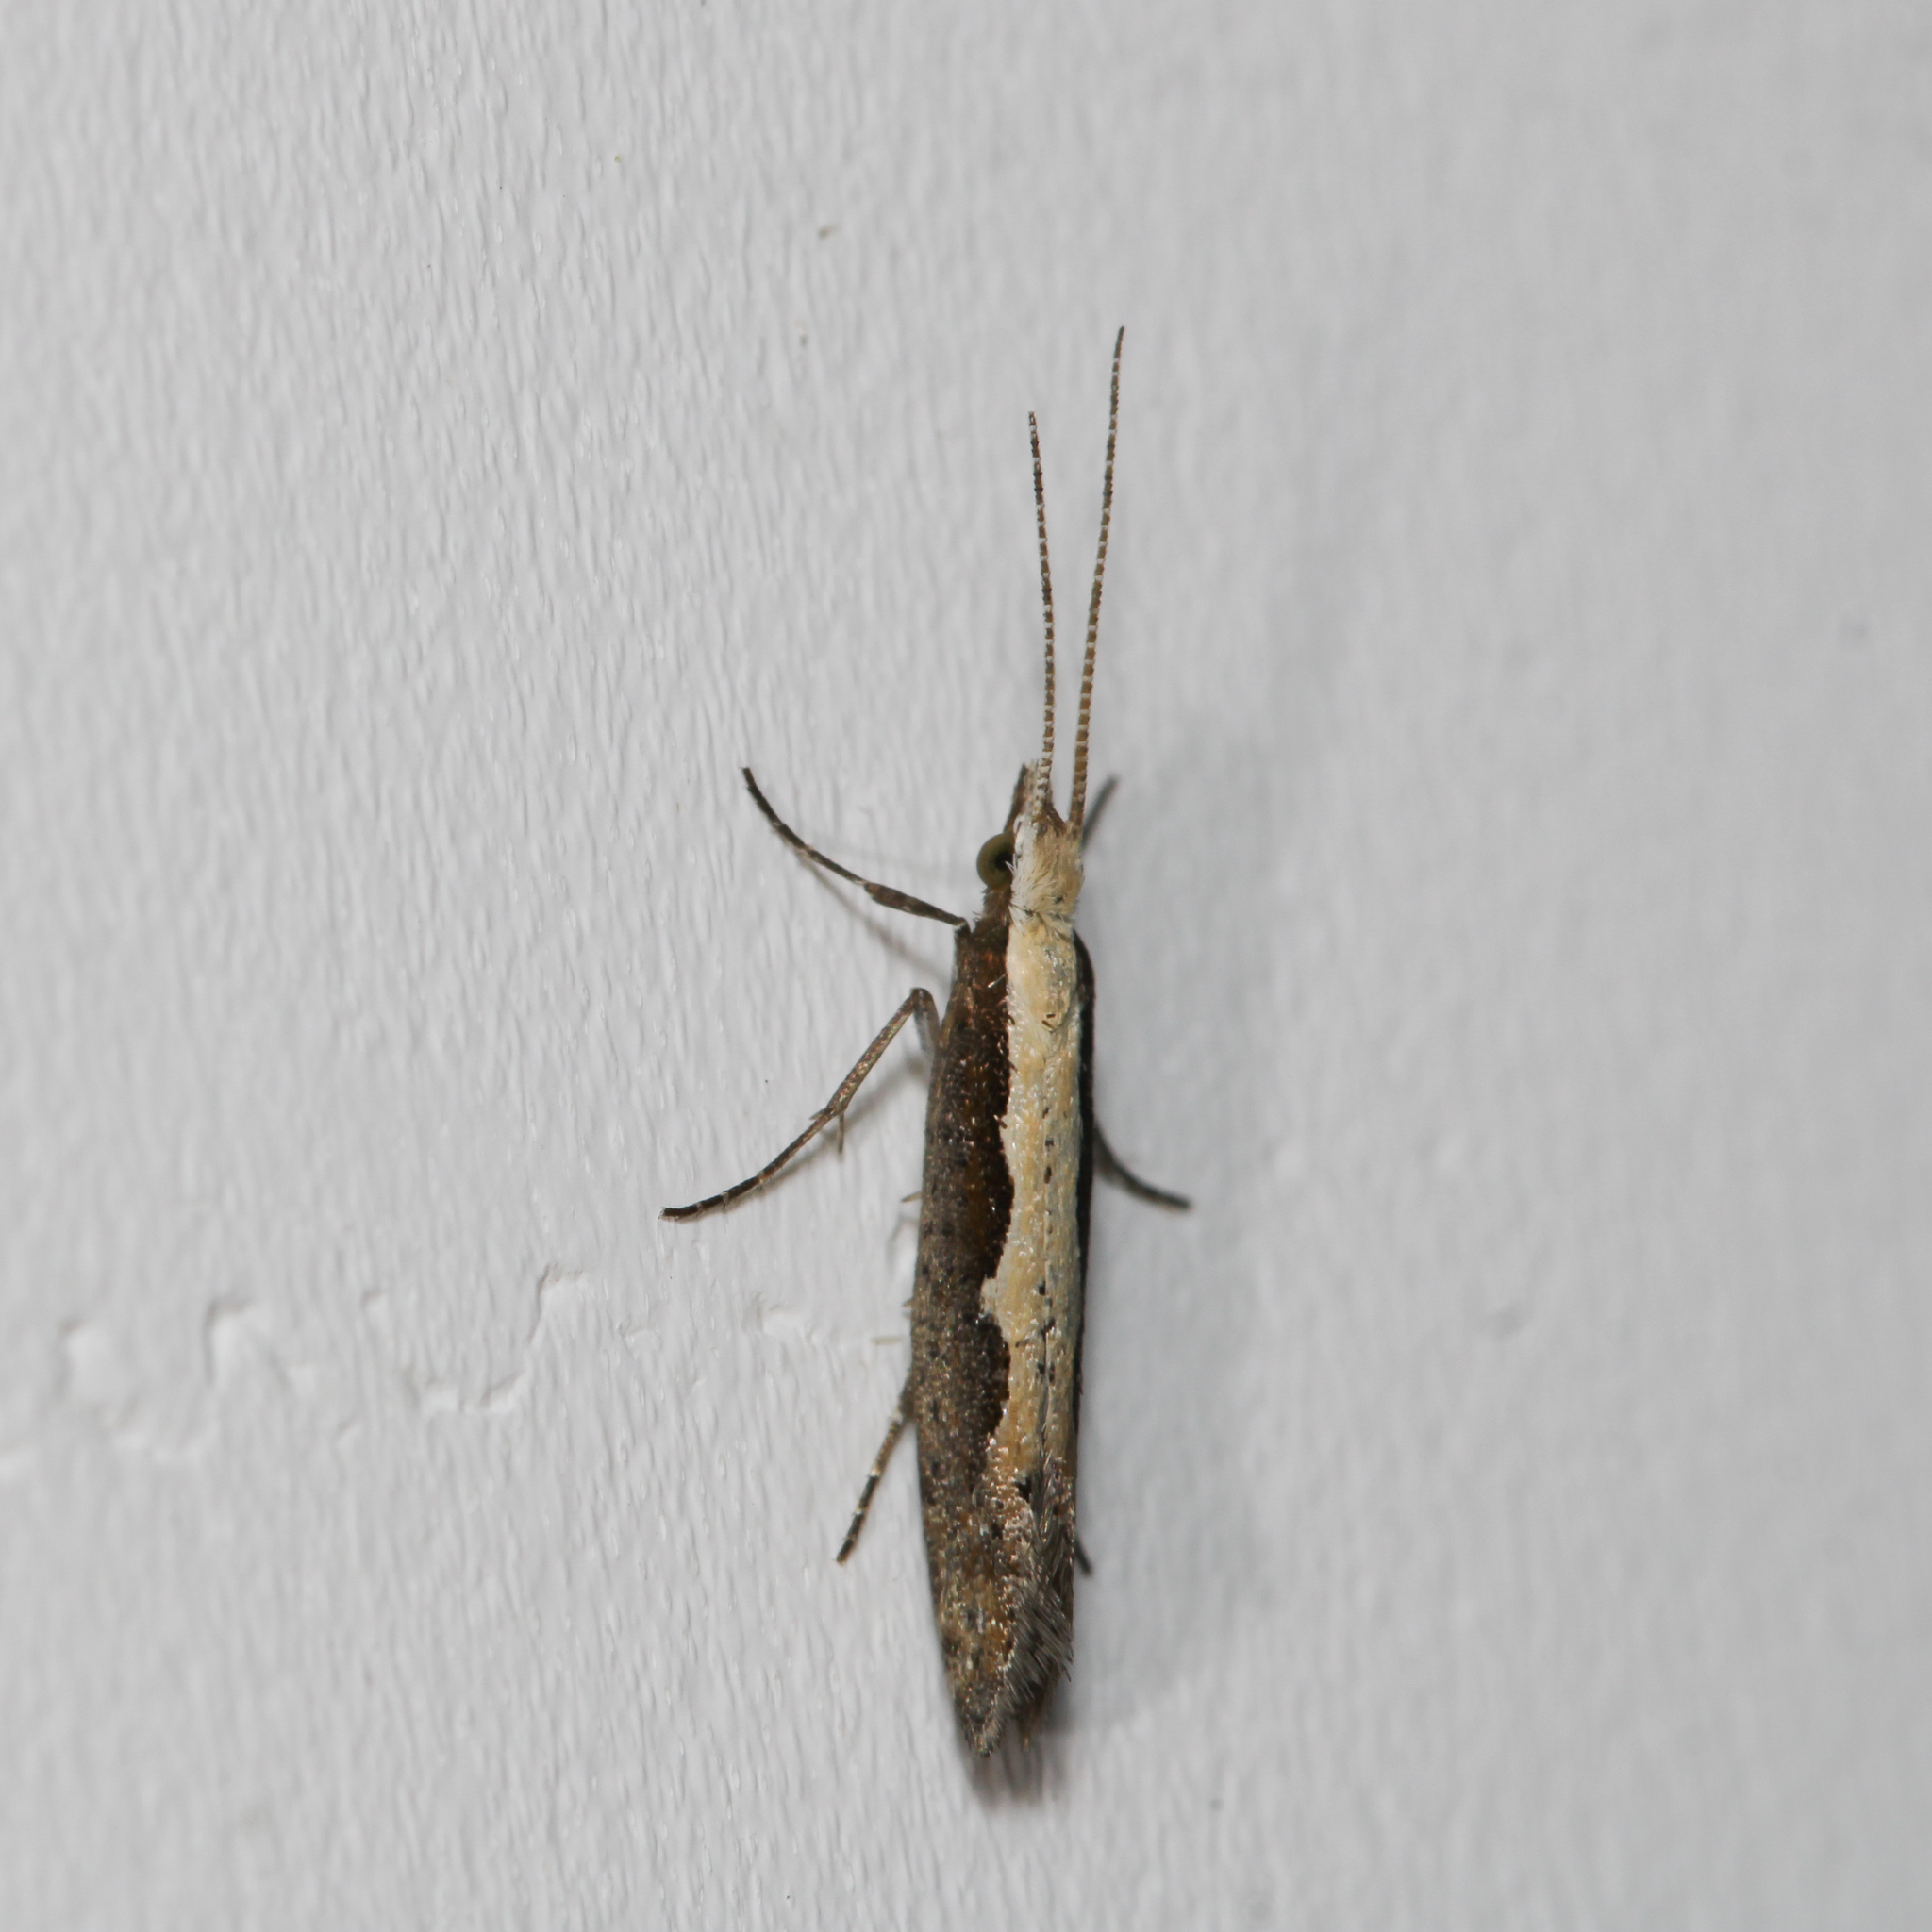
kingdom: Animalia
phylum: Arthropoda
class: Insecta
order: Lepidoptera
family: Plutellidae
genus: Plutella
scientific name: Plutella xylostella
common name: Diamond-back moth
